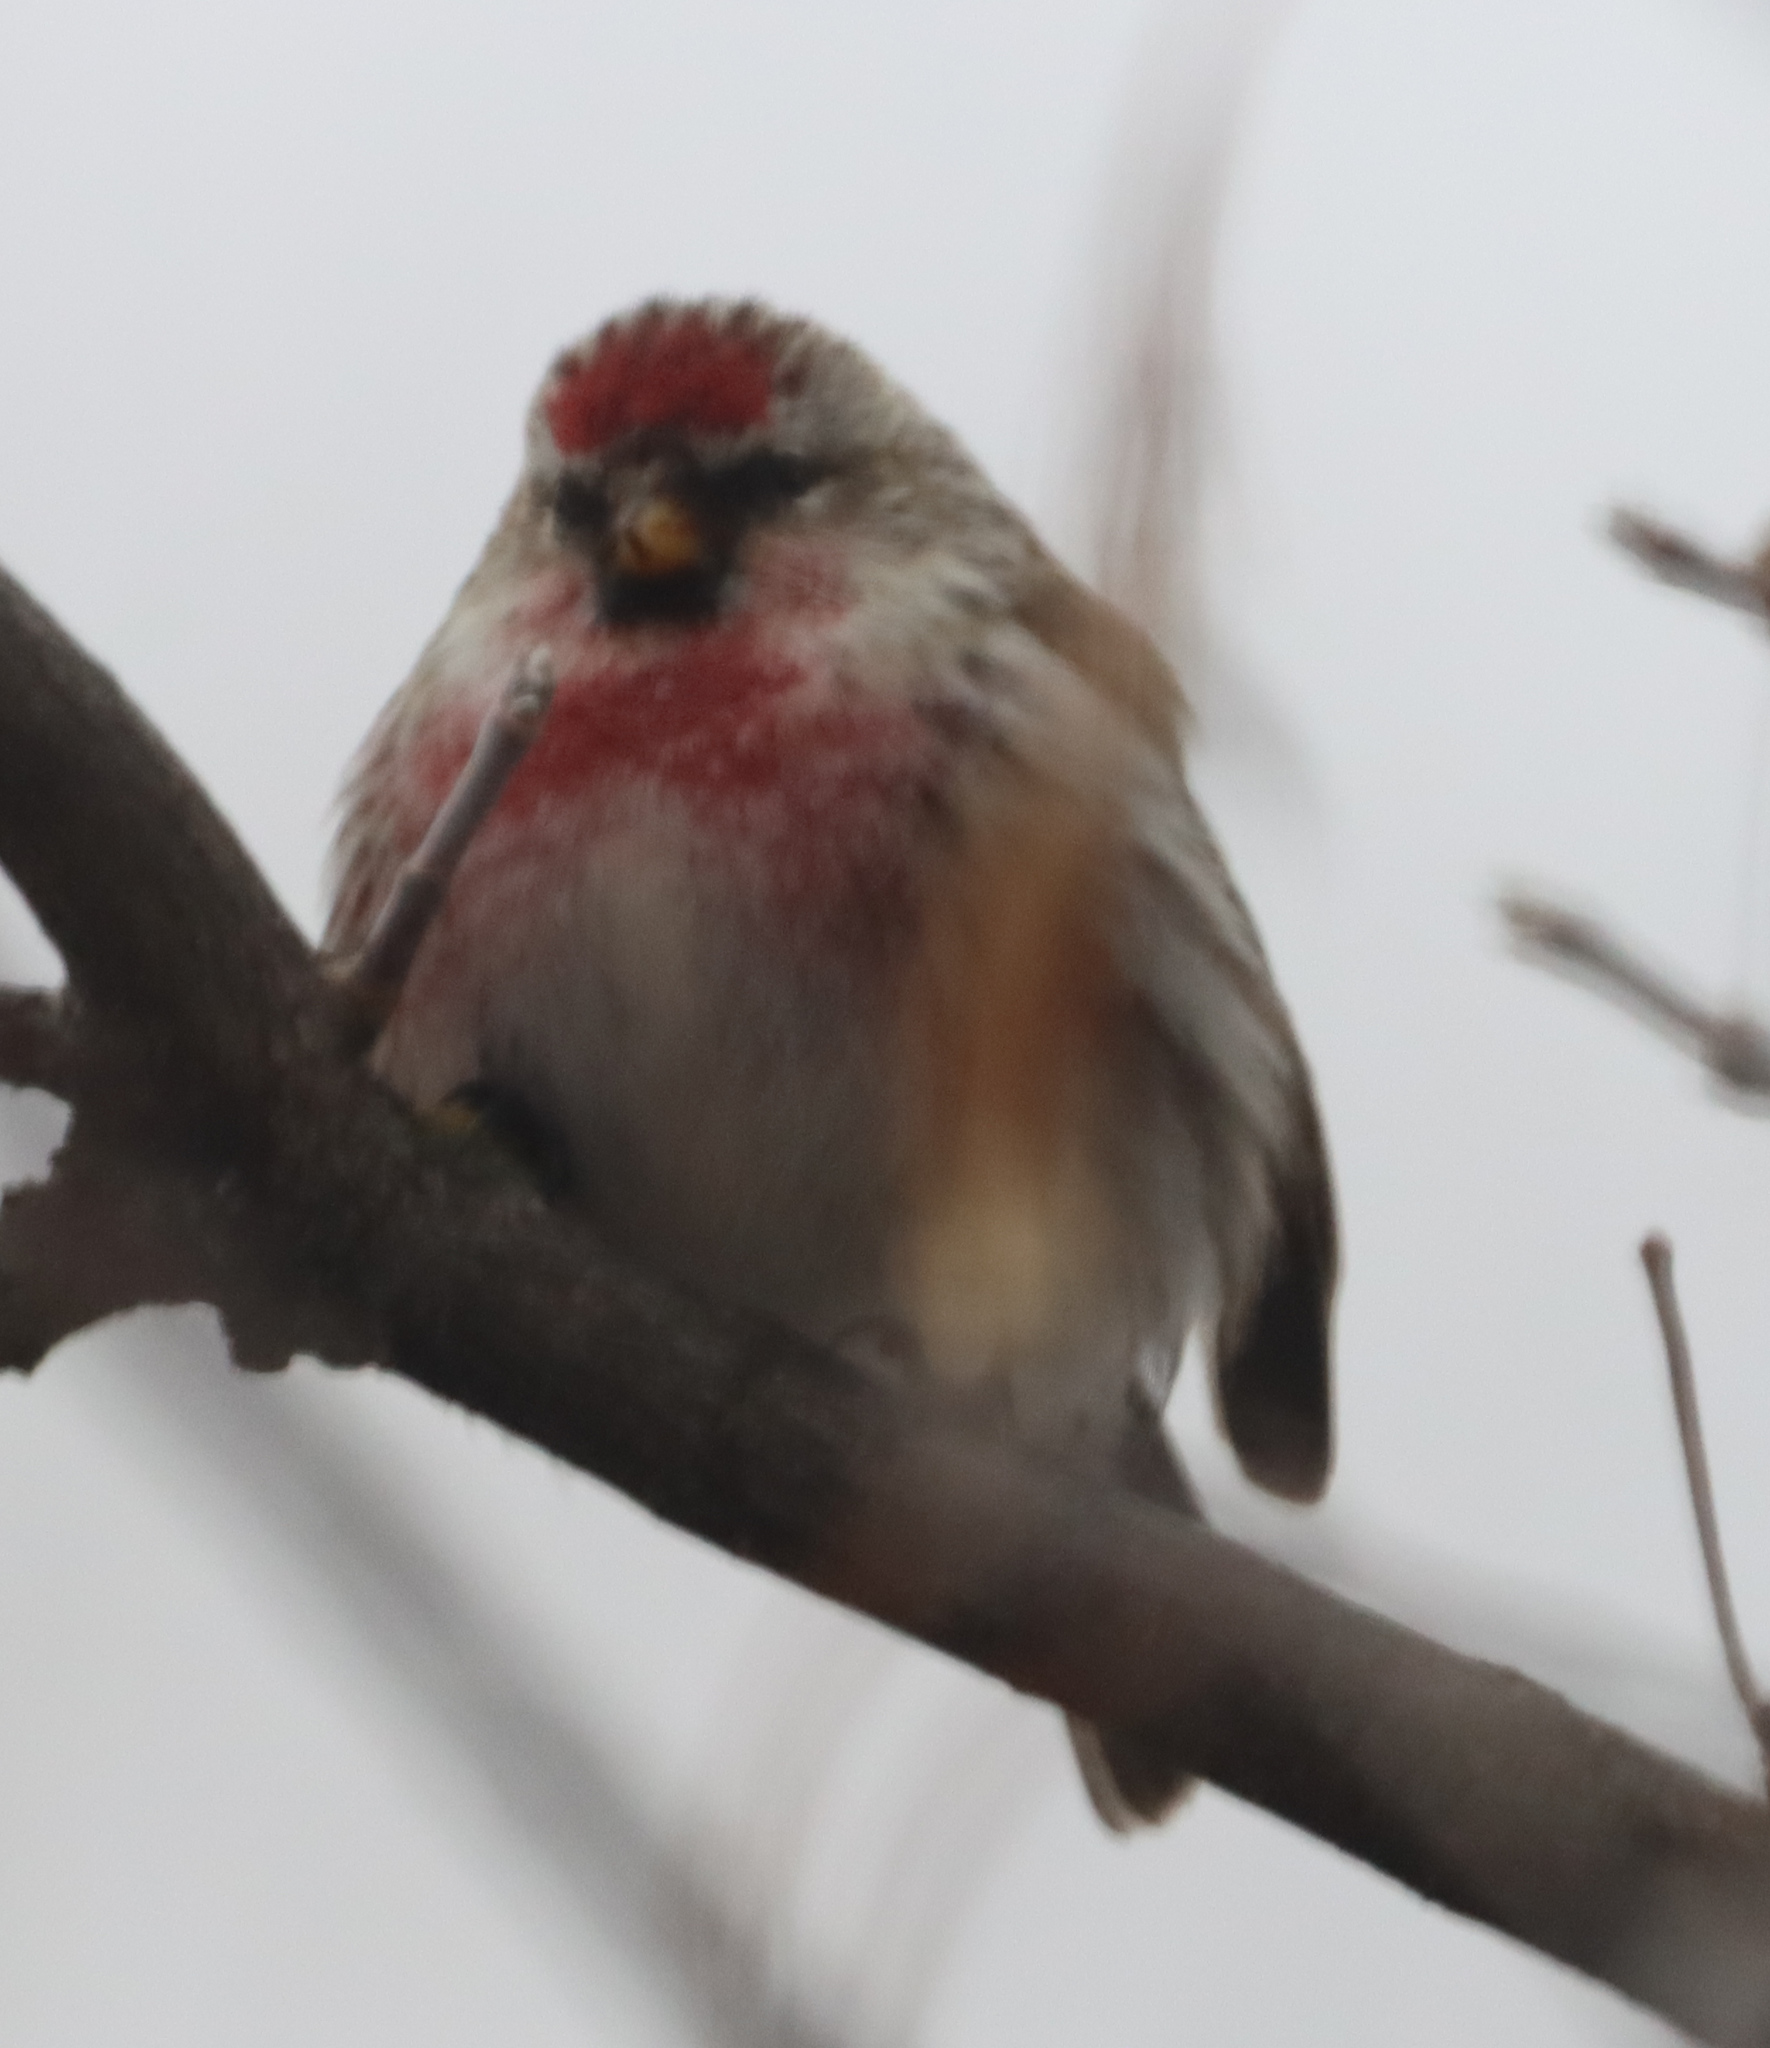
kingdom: Animalia
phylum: Chordata
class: Aves
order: Passeriformes
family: Fringillidae
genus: Acanthis
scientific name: Acanthis flammea
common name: Common redpoll
